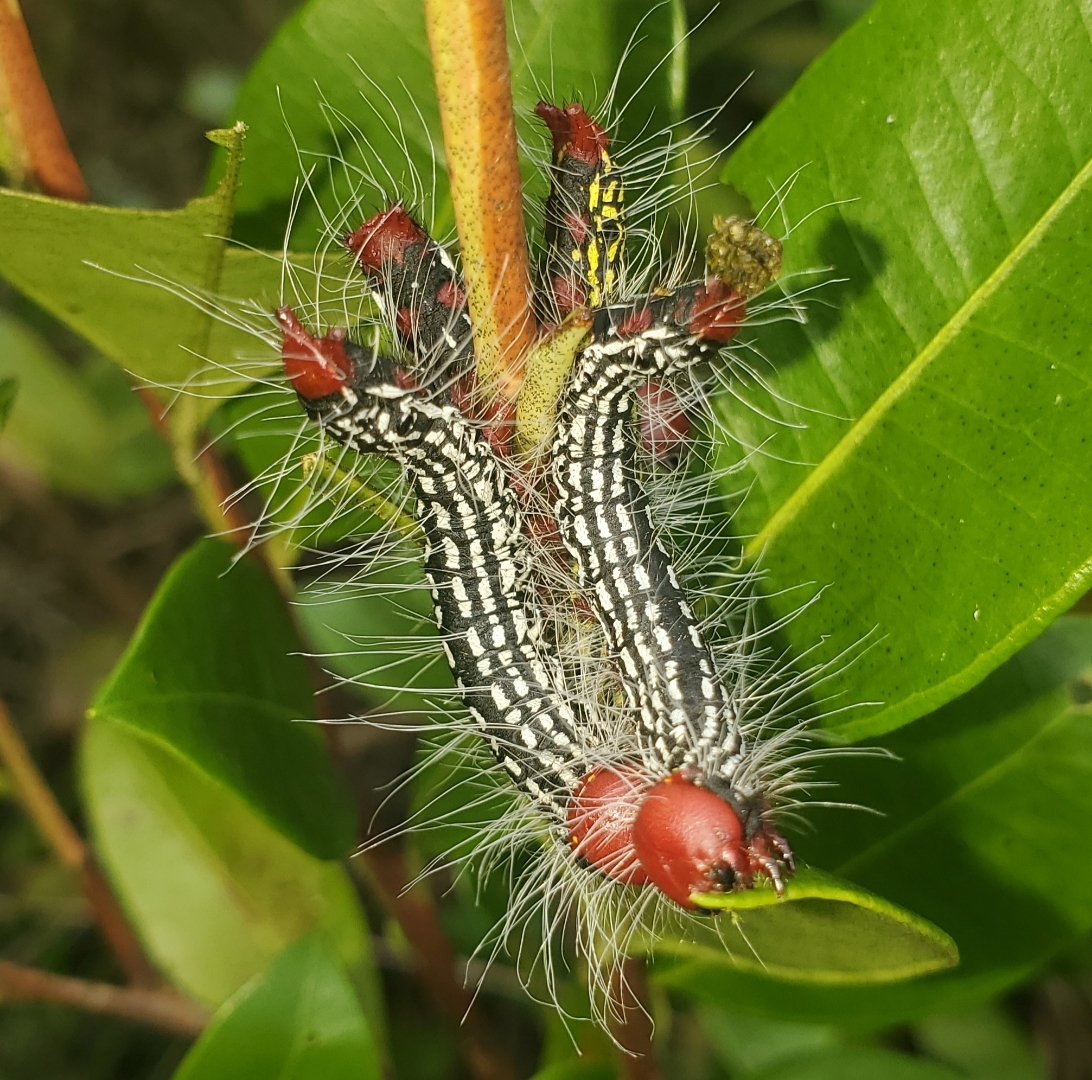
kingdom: Animalia
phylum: Arthropoda
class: Insecta
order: Lepidoptera
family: Notodontidae
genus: Datana
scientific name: Datana major
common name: Azalea caterpillar
